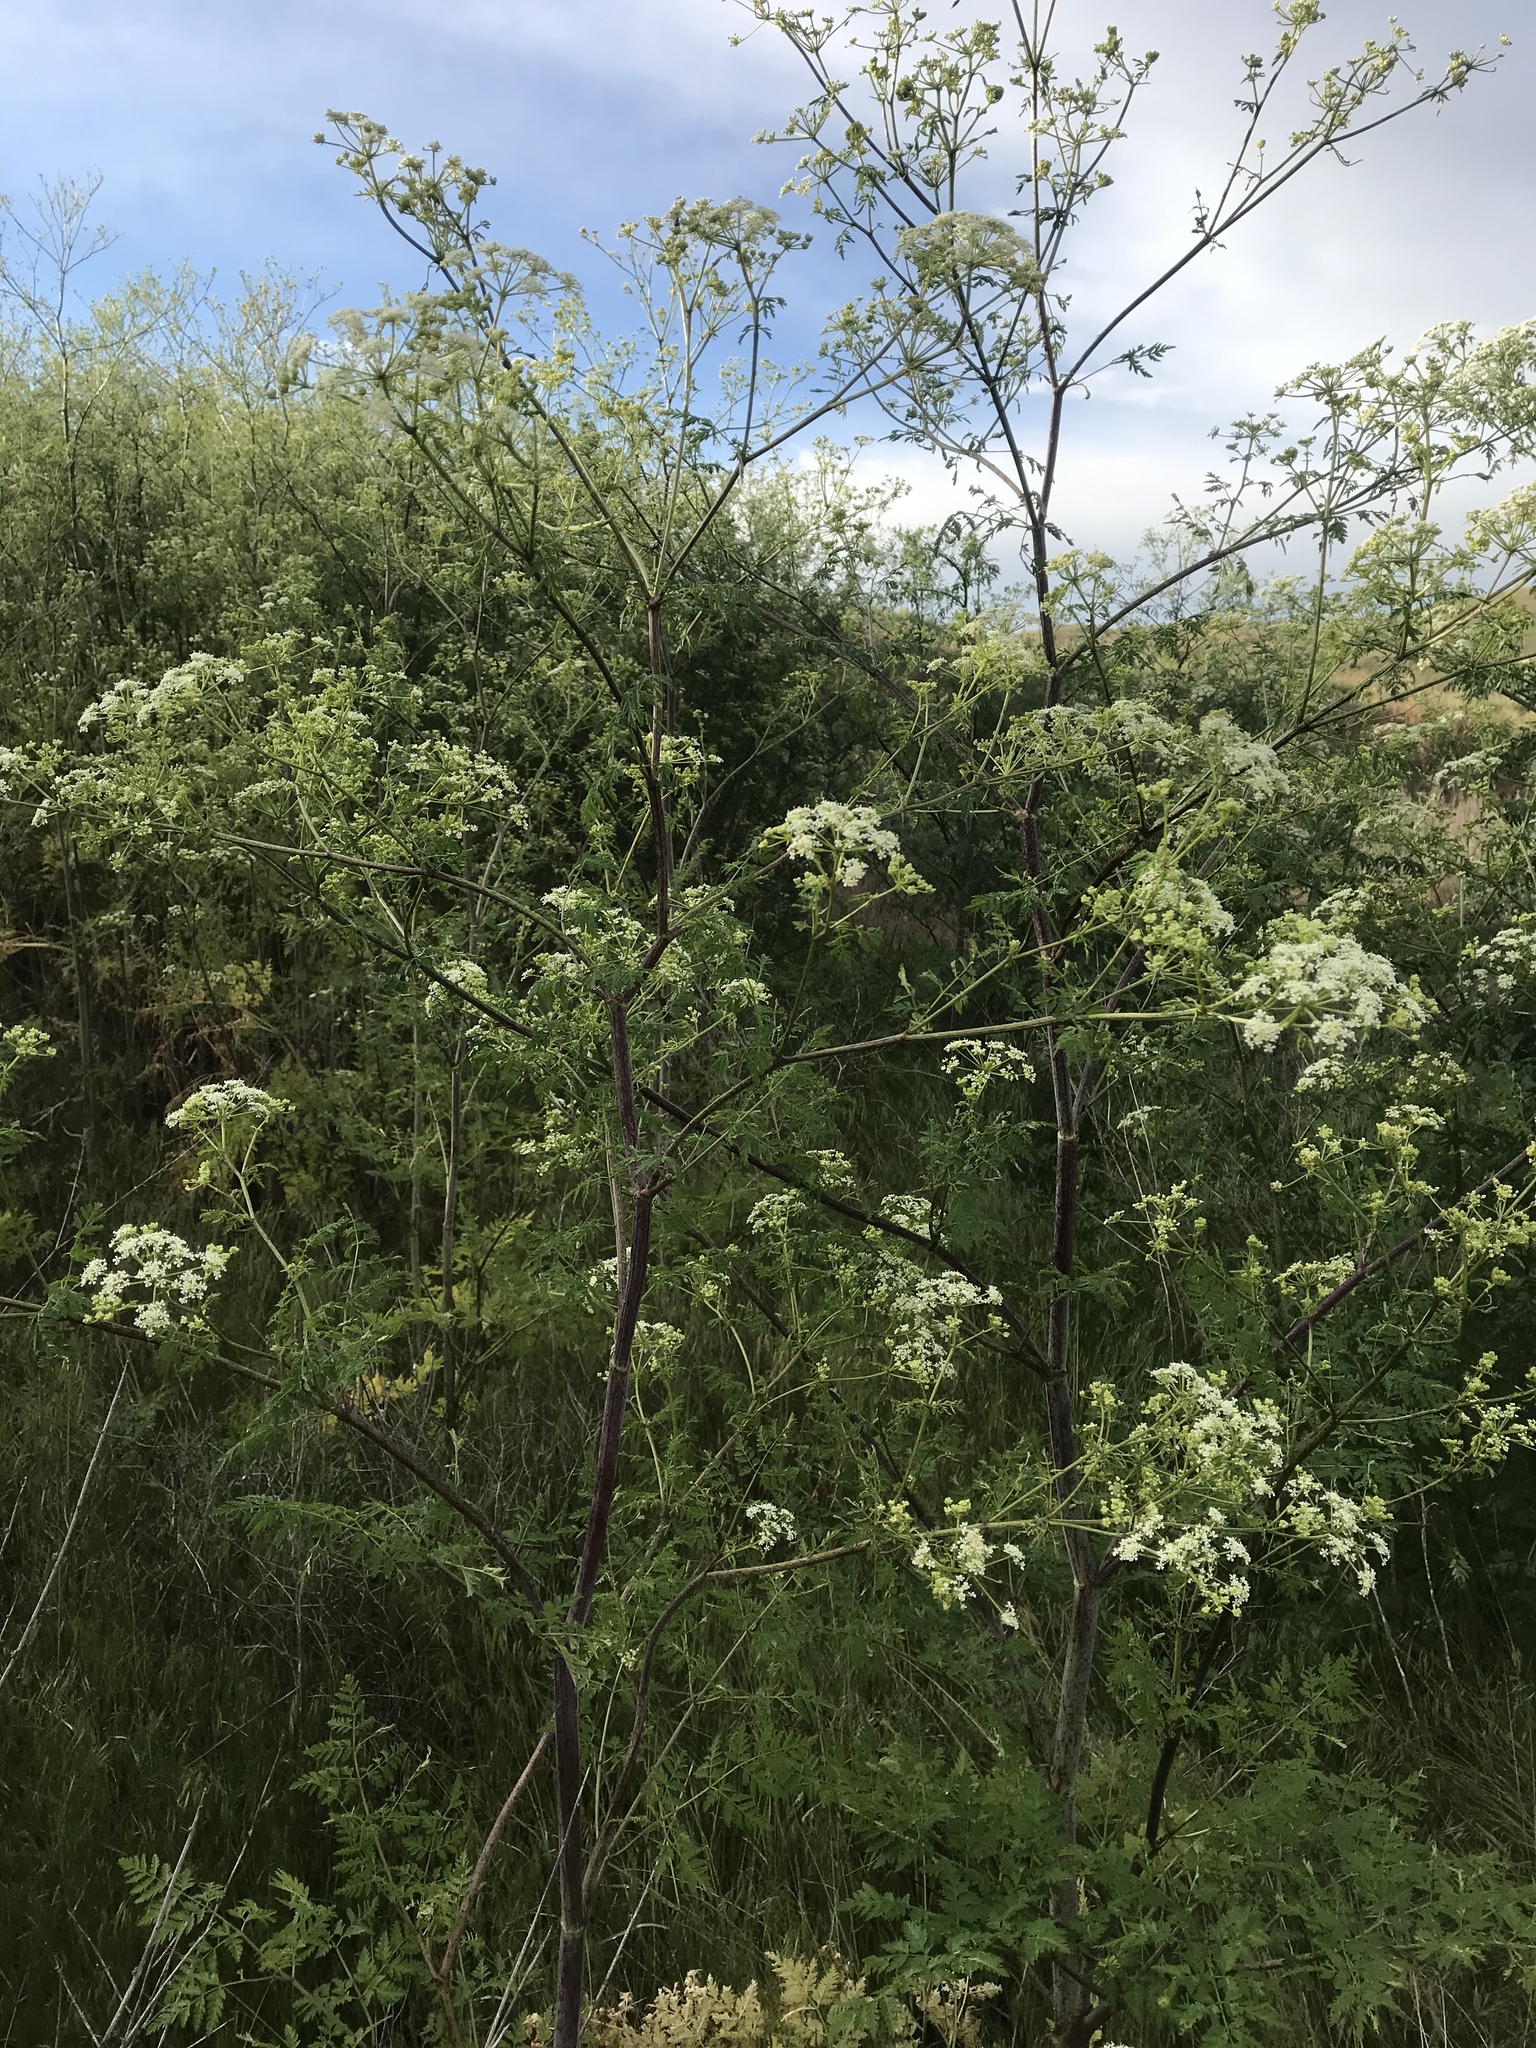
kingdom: Plantae
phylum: Tracheophyta
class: Magnoliopsida
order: Apiales
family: Apiaceae
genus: Conium
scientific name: Conium maculatum
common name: Hemlock
